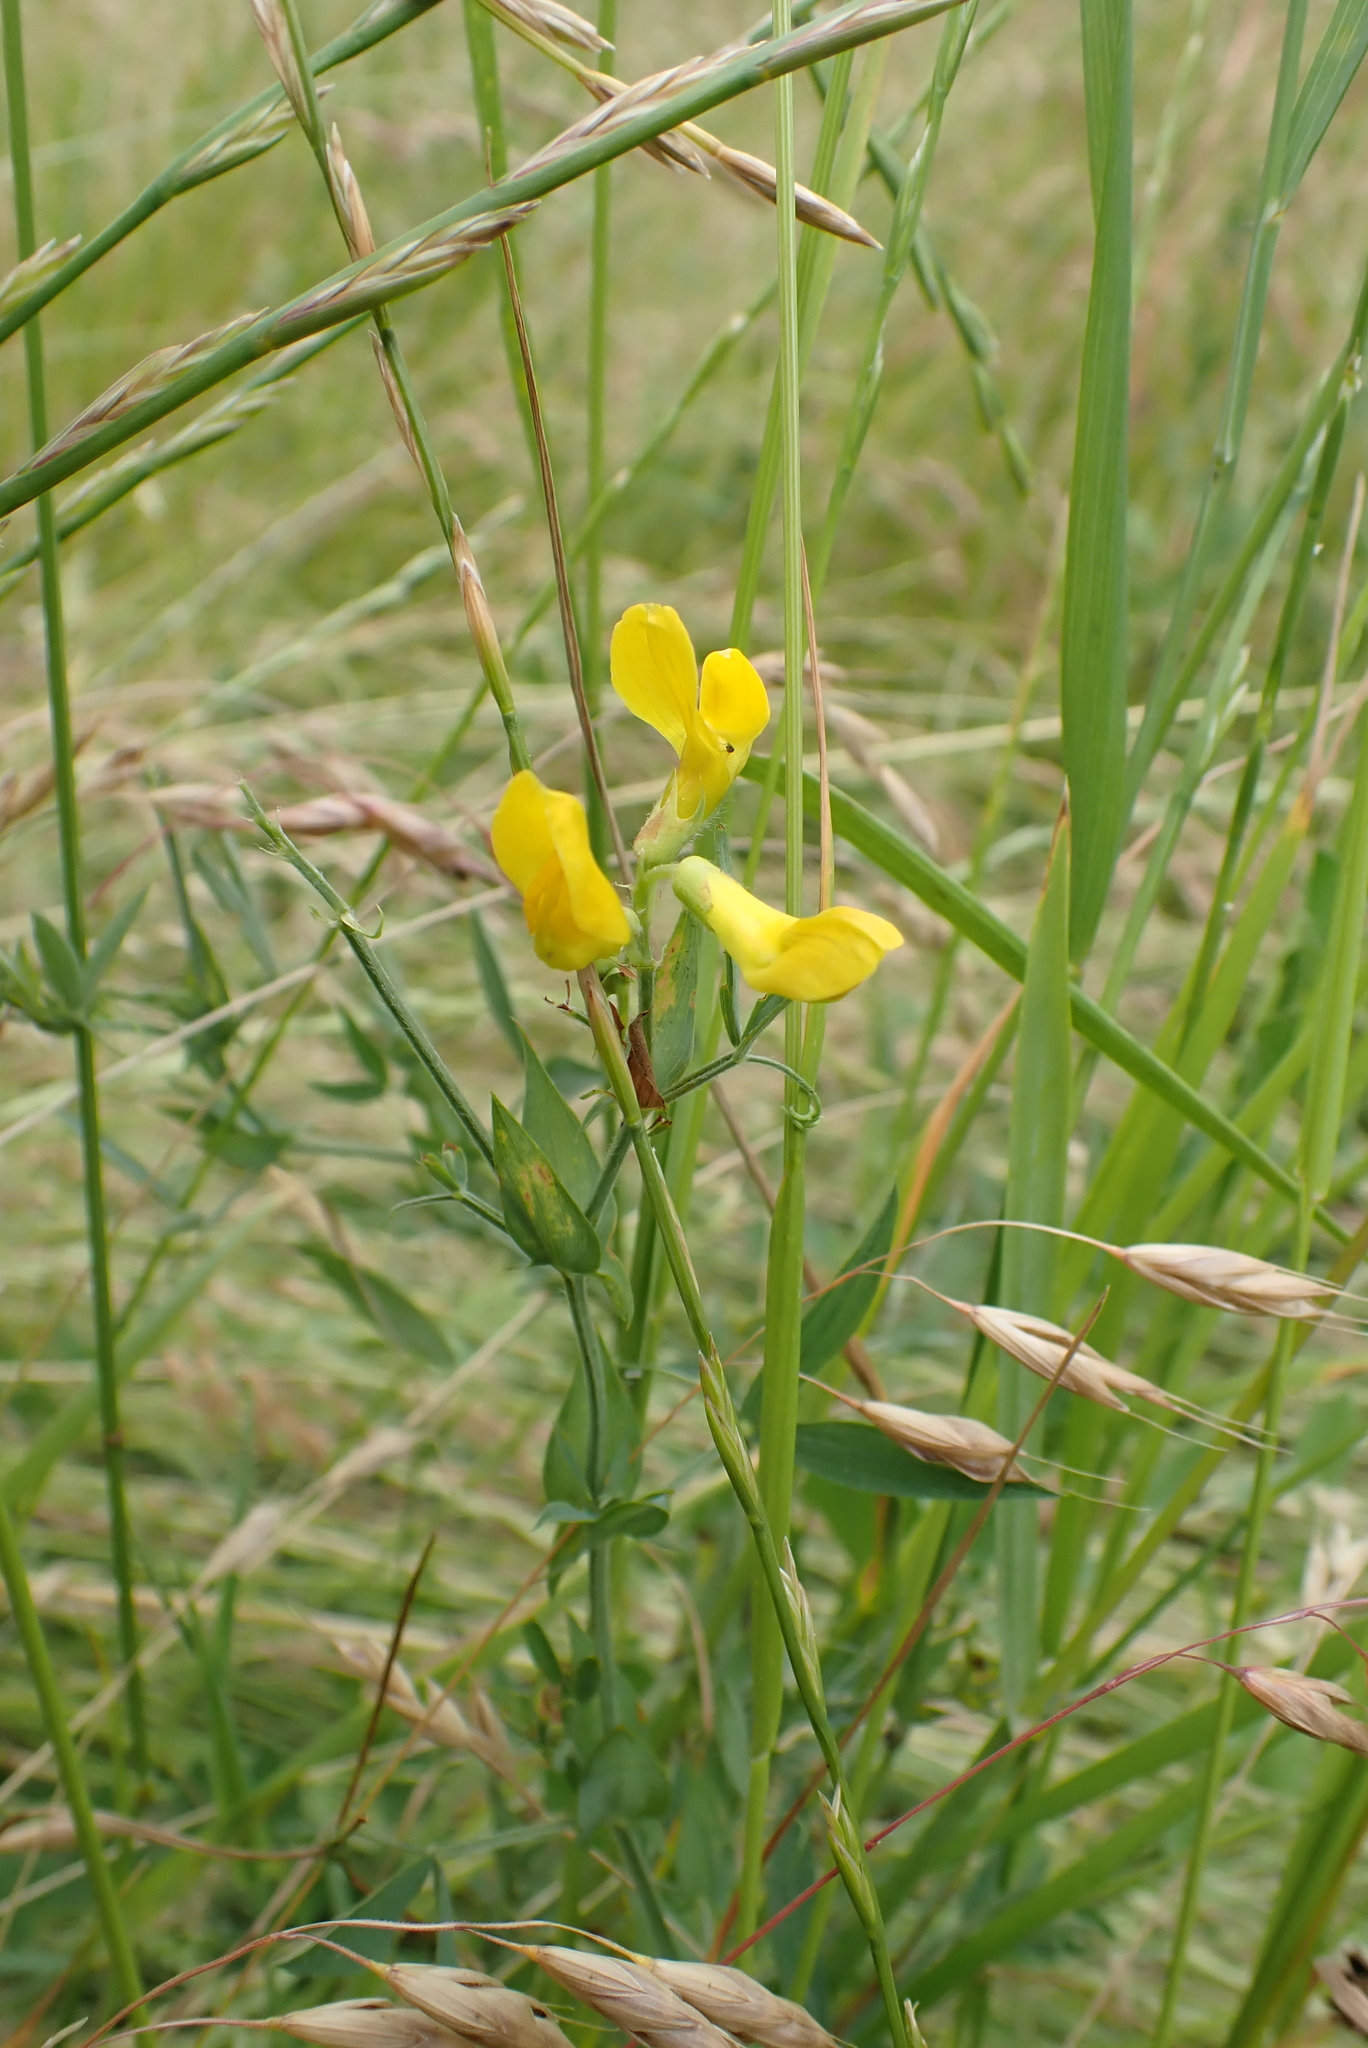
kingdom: Plantae
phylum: Tracheophyta
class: Magnoliopsida
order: Fabales
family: Fabaceae
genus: Lathyrus
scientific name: Lathyrus pratensis
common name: Meadow vetchling
